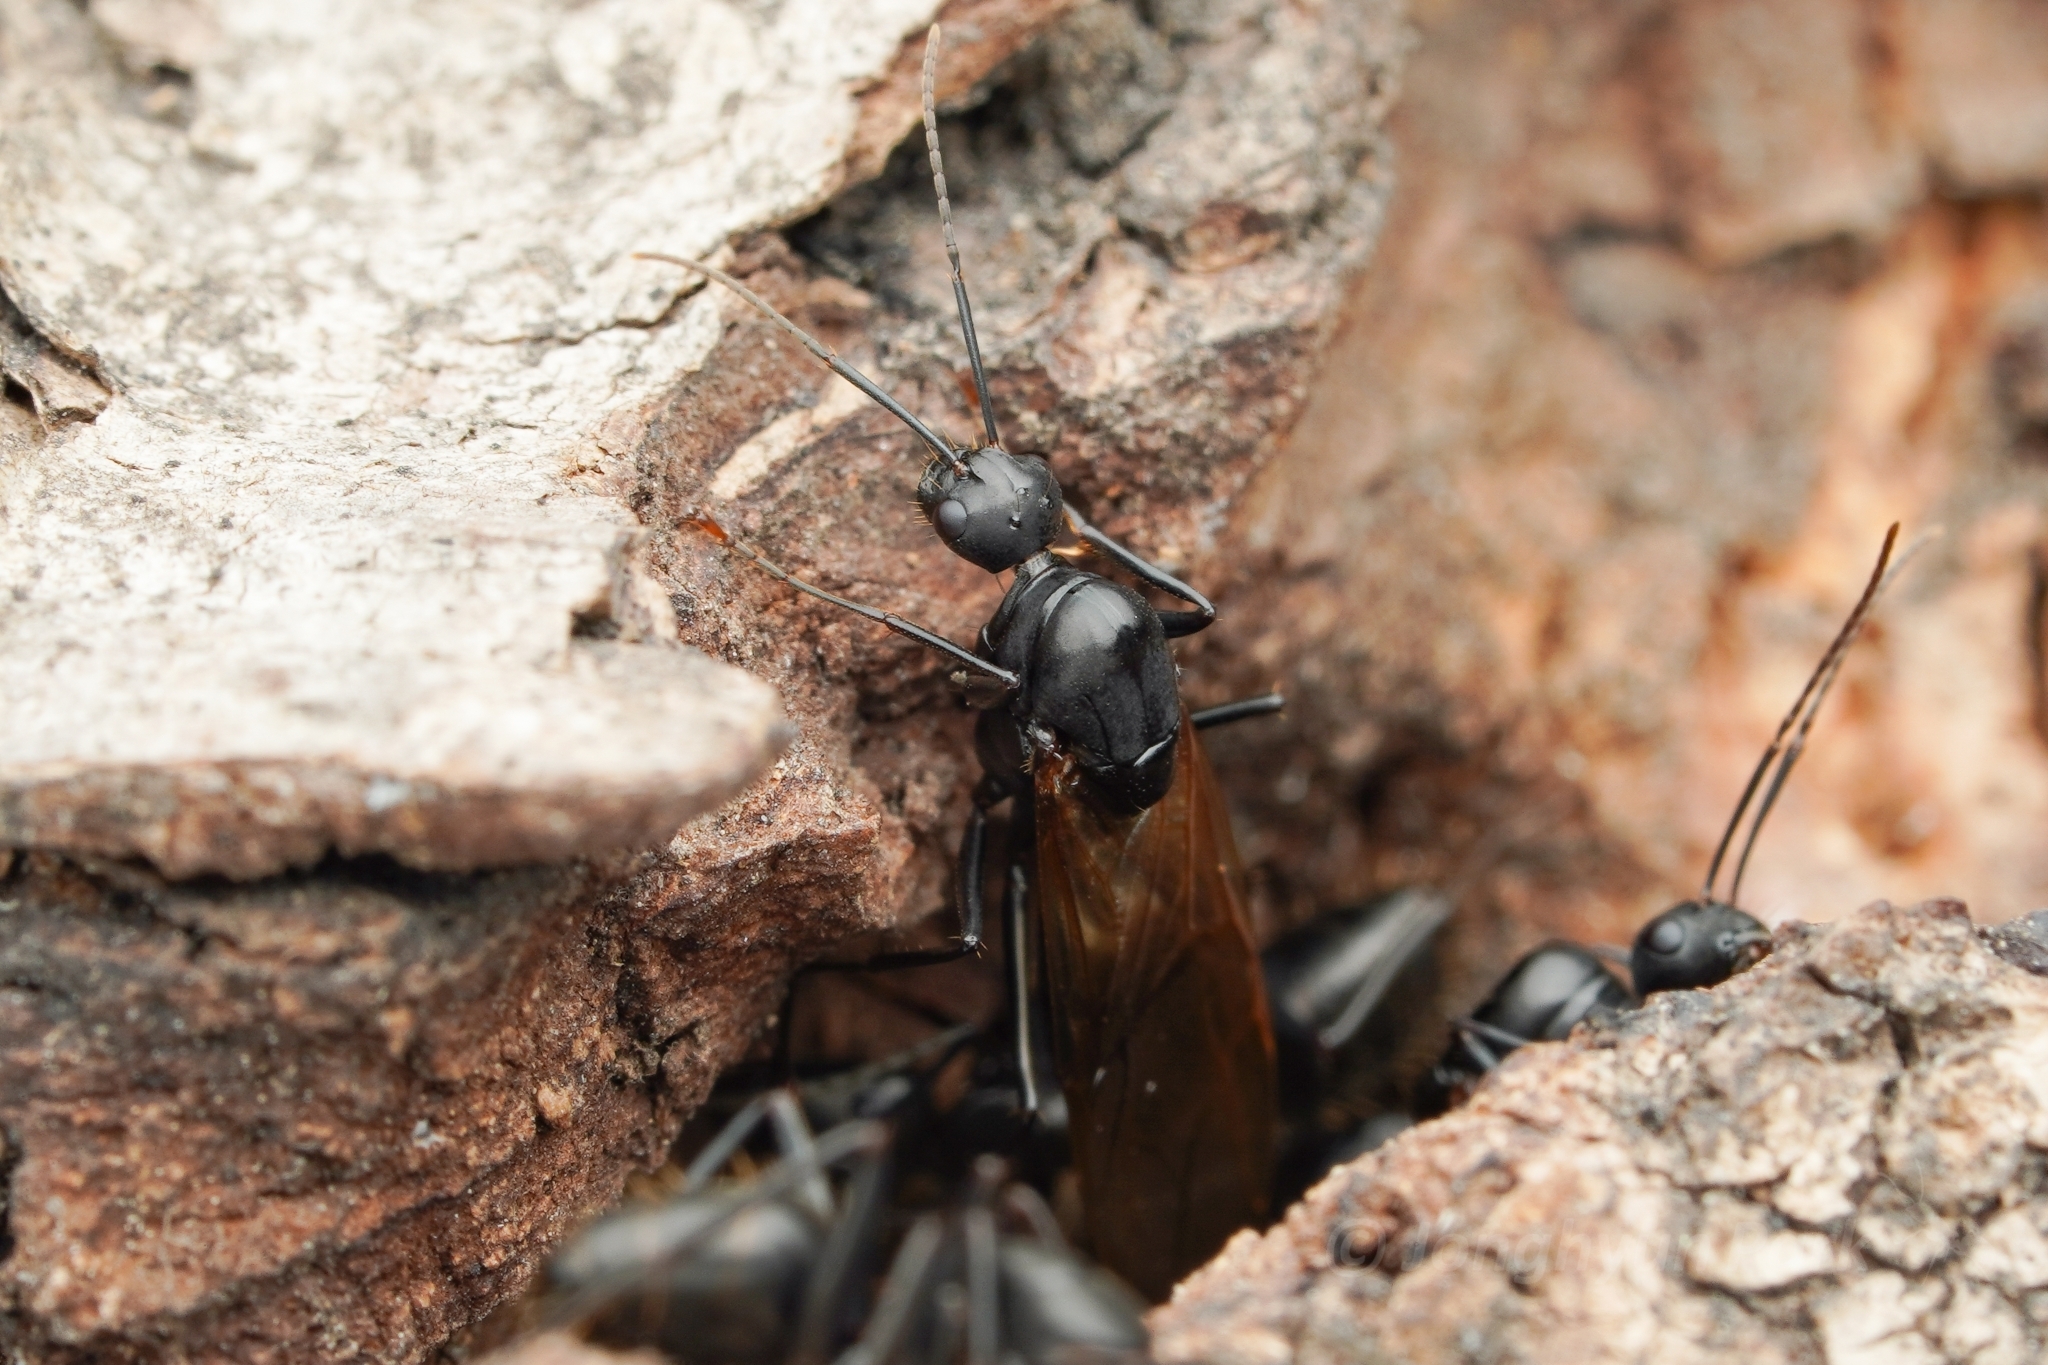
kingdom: Animalia
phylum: Arthropoda
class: Insecta
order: Hymenoptera
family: Formicidae
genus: Camponotus
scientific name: Camponotus concavus
